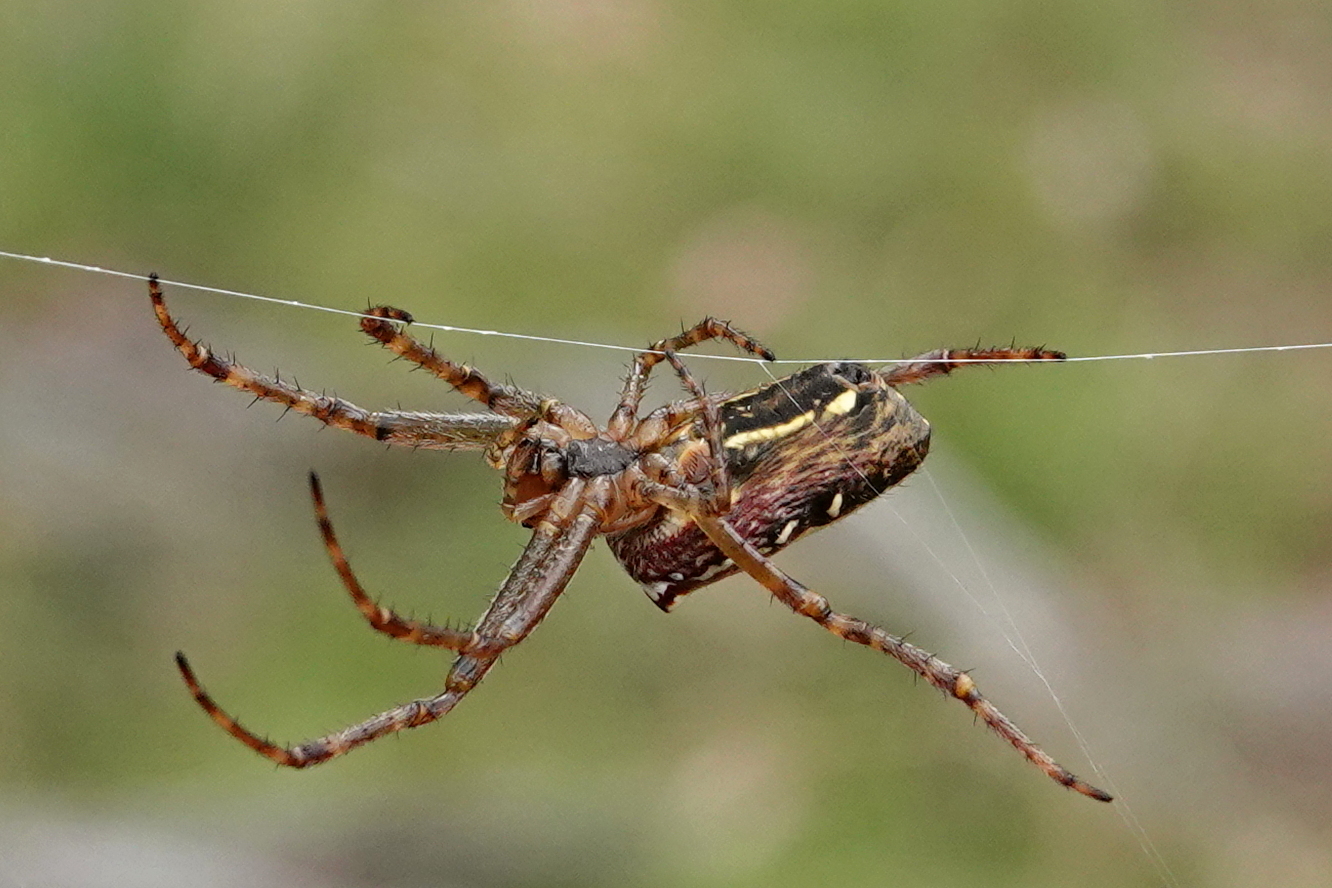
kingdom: Animalia
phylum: Arthropoda
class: Arachnida
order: Araneae
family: Araneidae
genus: Plebs
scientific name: Plebs bradleyi
